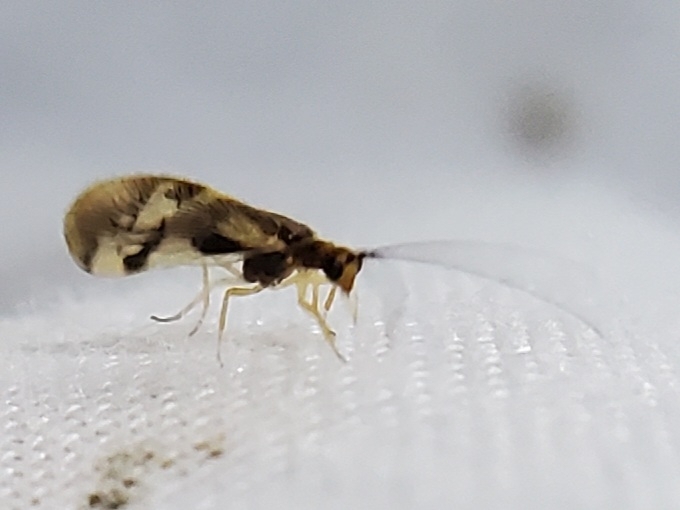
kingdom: Animalia
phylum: Arthropoda
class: Insecta
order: Neuroptera
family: Sisyridae
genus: Climacia
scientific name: Climacia areolaris
